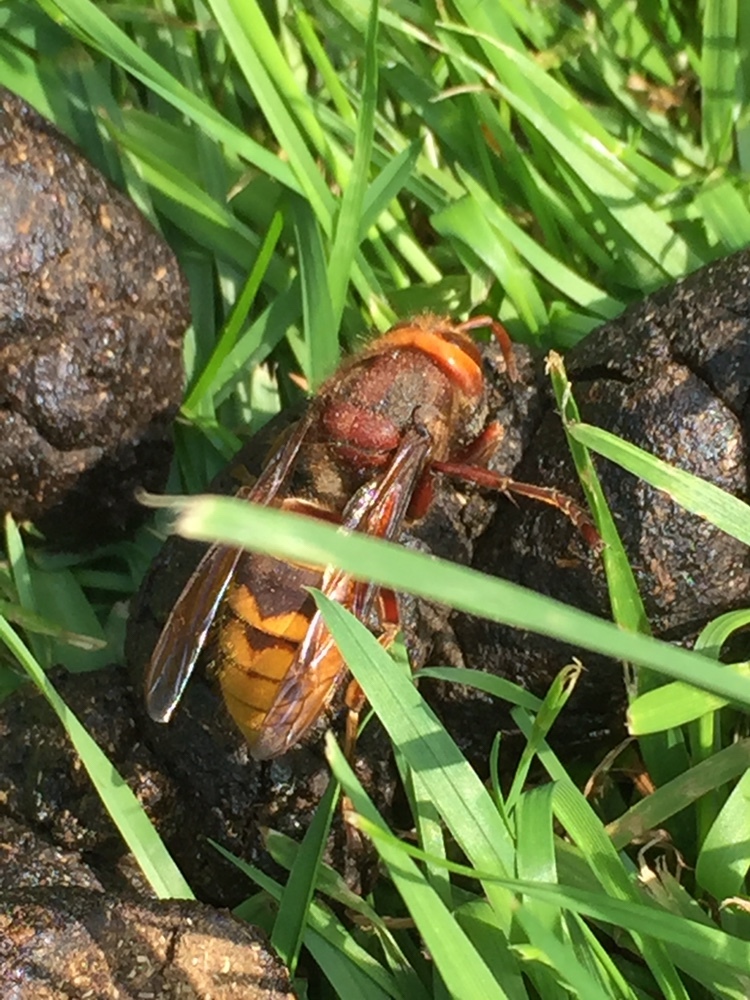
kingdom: Animalia
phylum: Arthropoda
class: Insecta
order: Hymenoptera
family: Vespidae
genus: Vespa
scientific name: Vespa crabro
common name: Hornet
